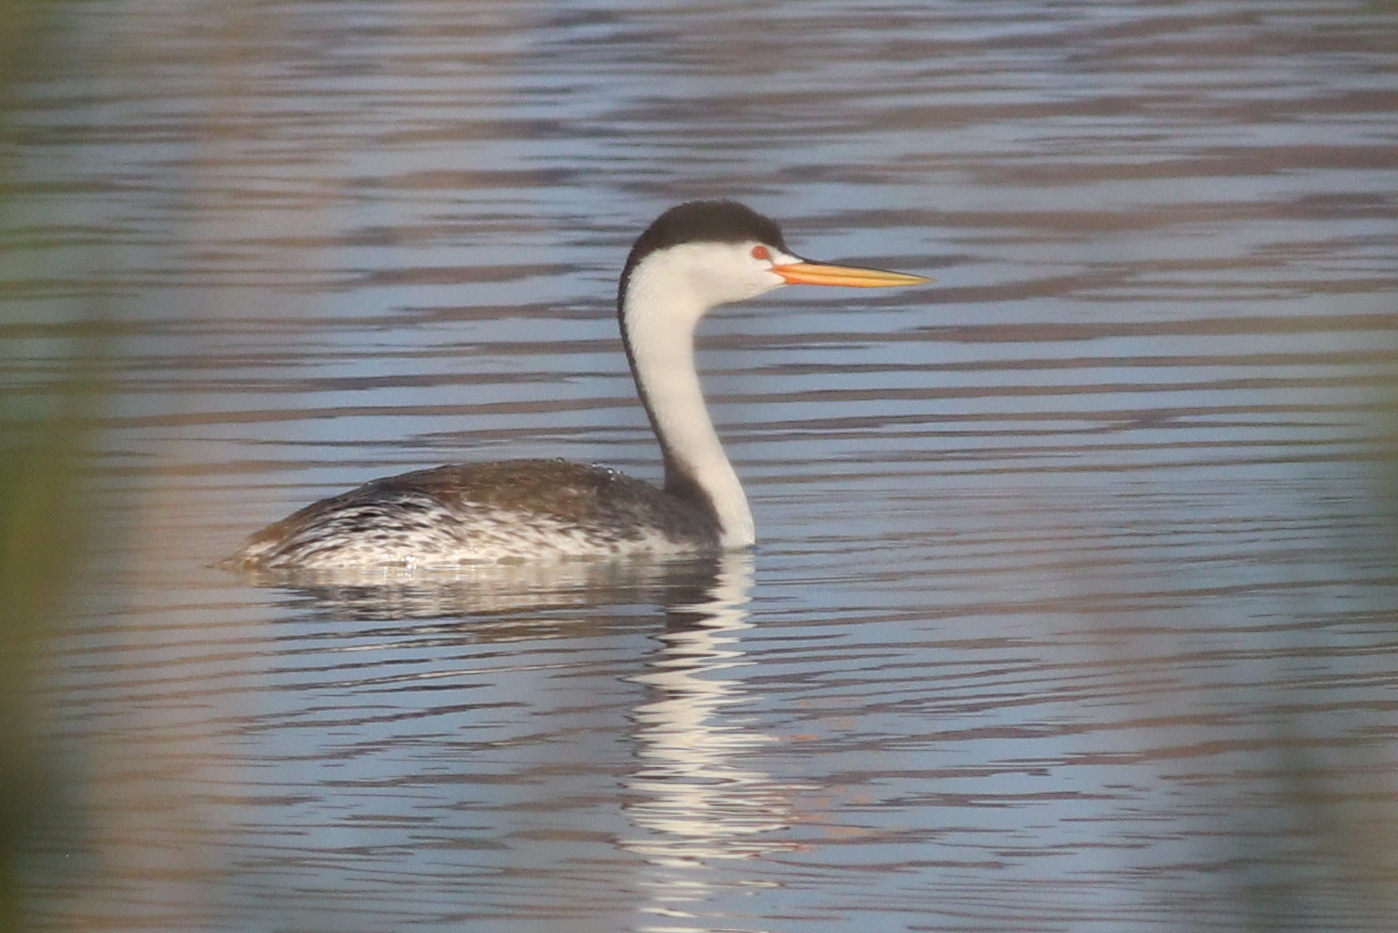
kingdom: Animalia
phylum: Chordata
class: Aves
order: Podicipediformes
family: Podicipedidae
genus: Aechmophorus
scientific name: Aechmophorus clarkii
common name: Clark's grebe
